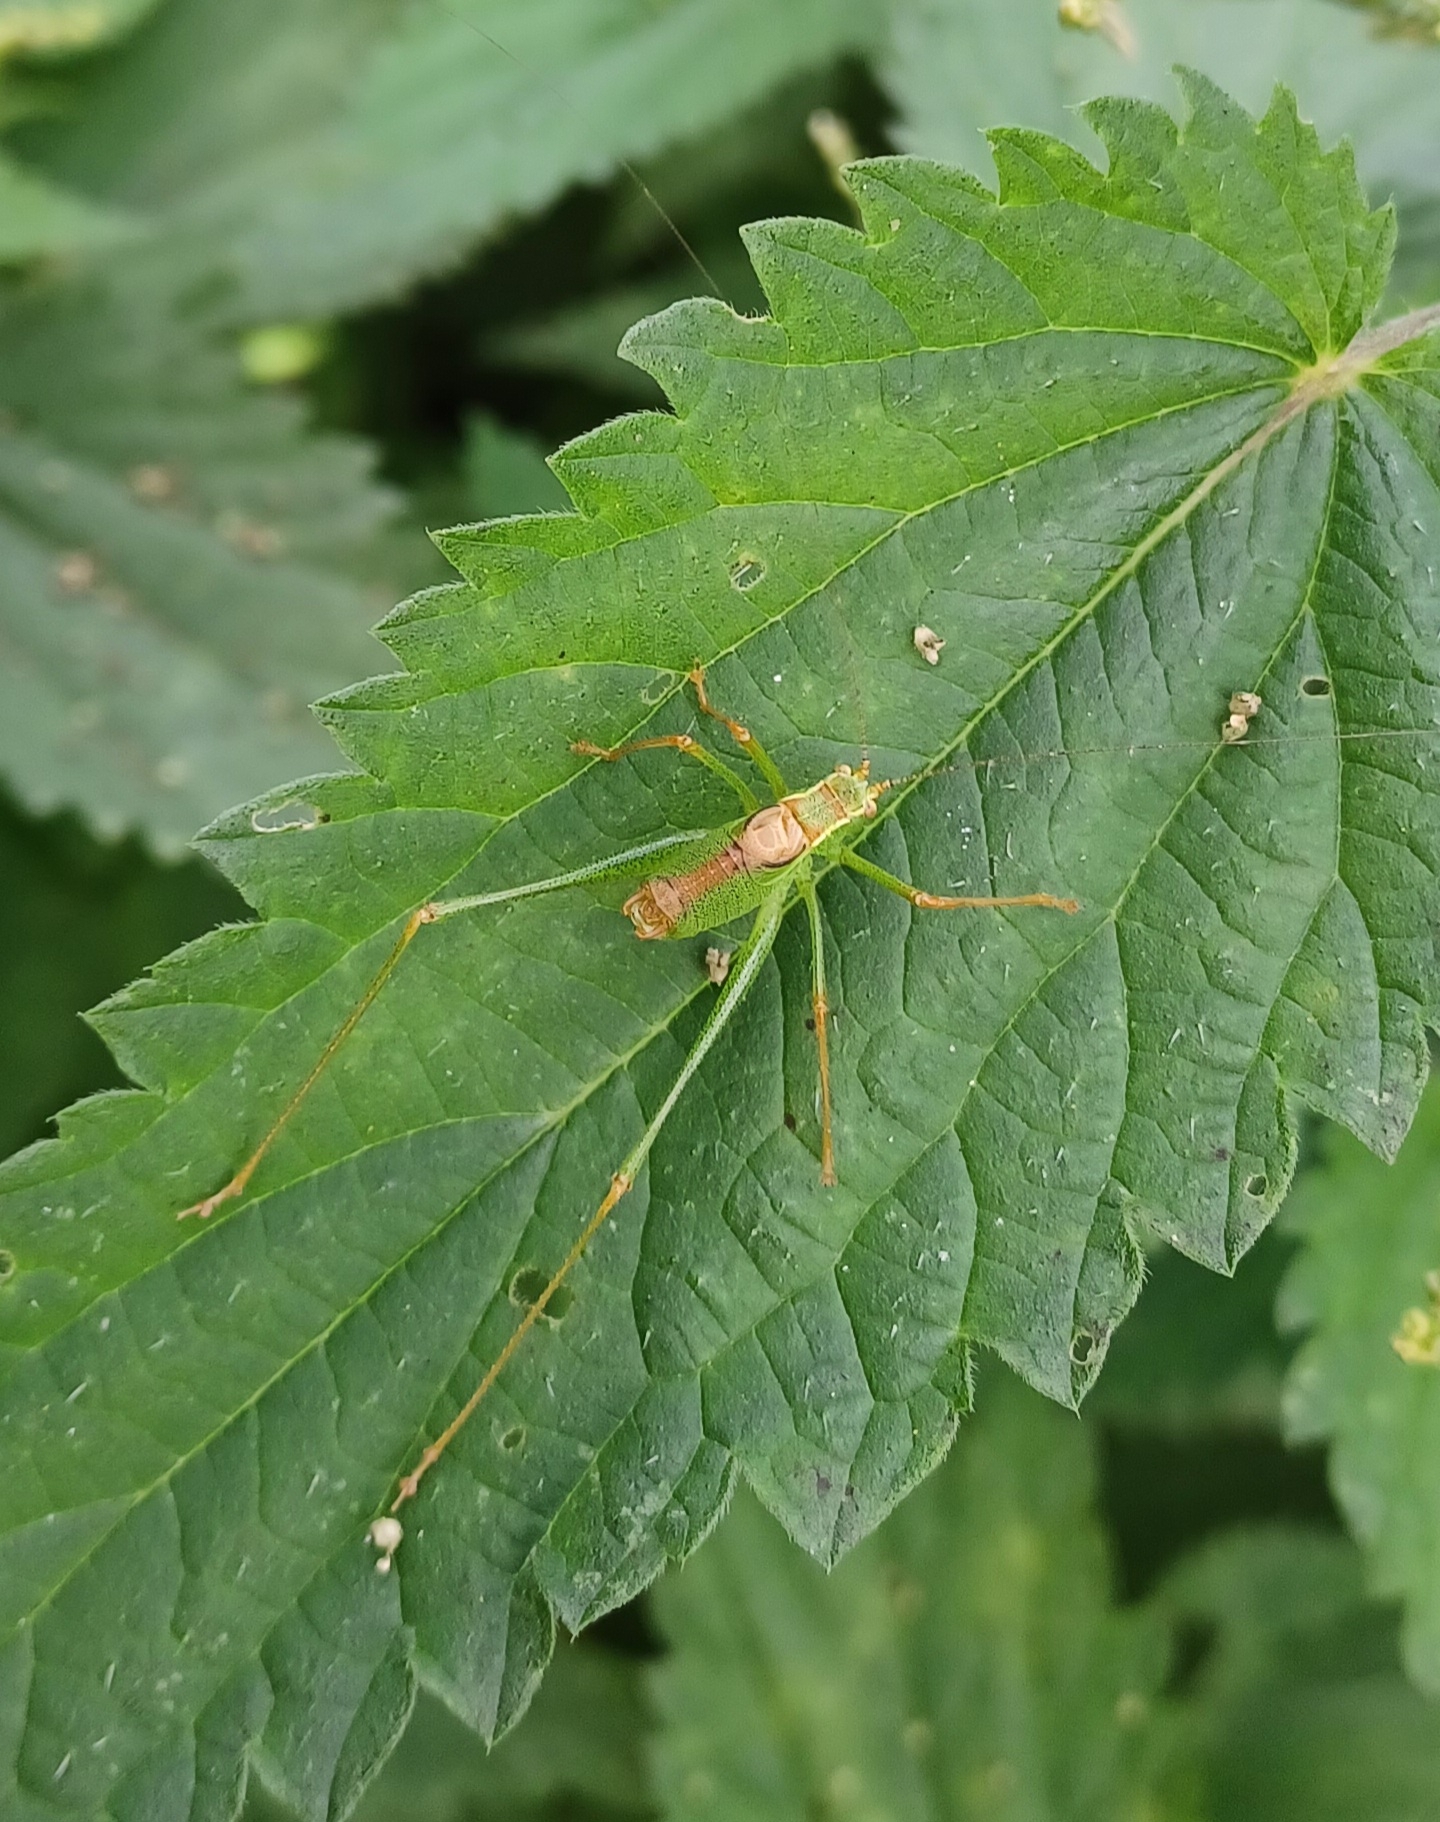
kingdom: Animalia
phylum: Arthropoda
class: Insecta
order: Orthoptera
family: Tettigoniidae
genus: Leptophyes
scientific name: Leptophyes punctatissima
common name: Speckled bush-cricket
